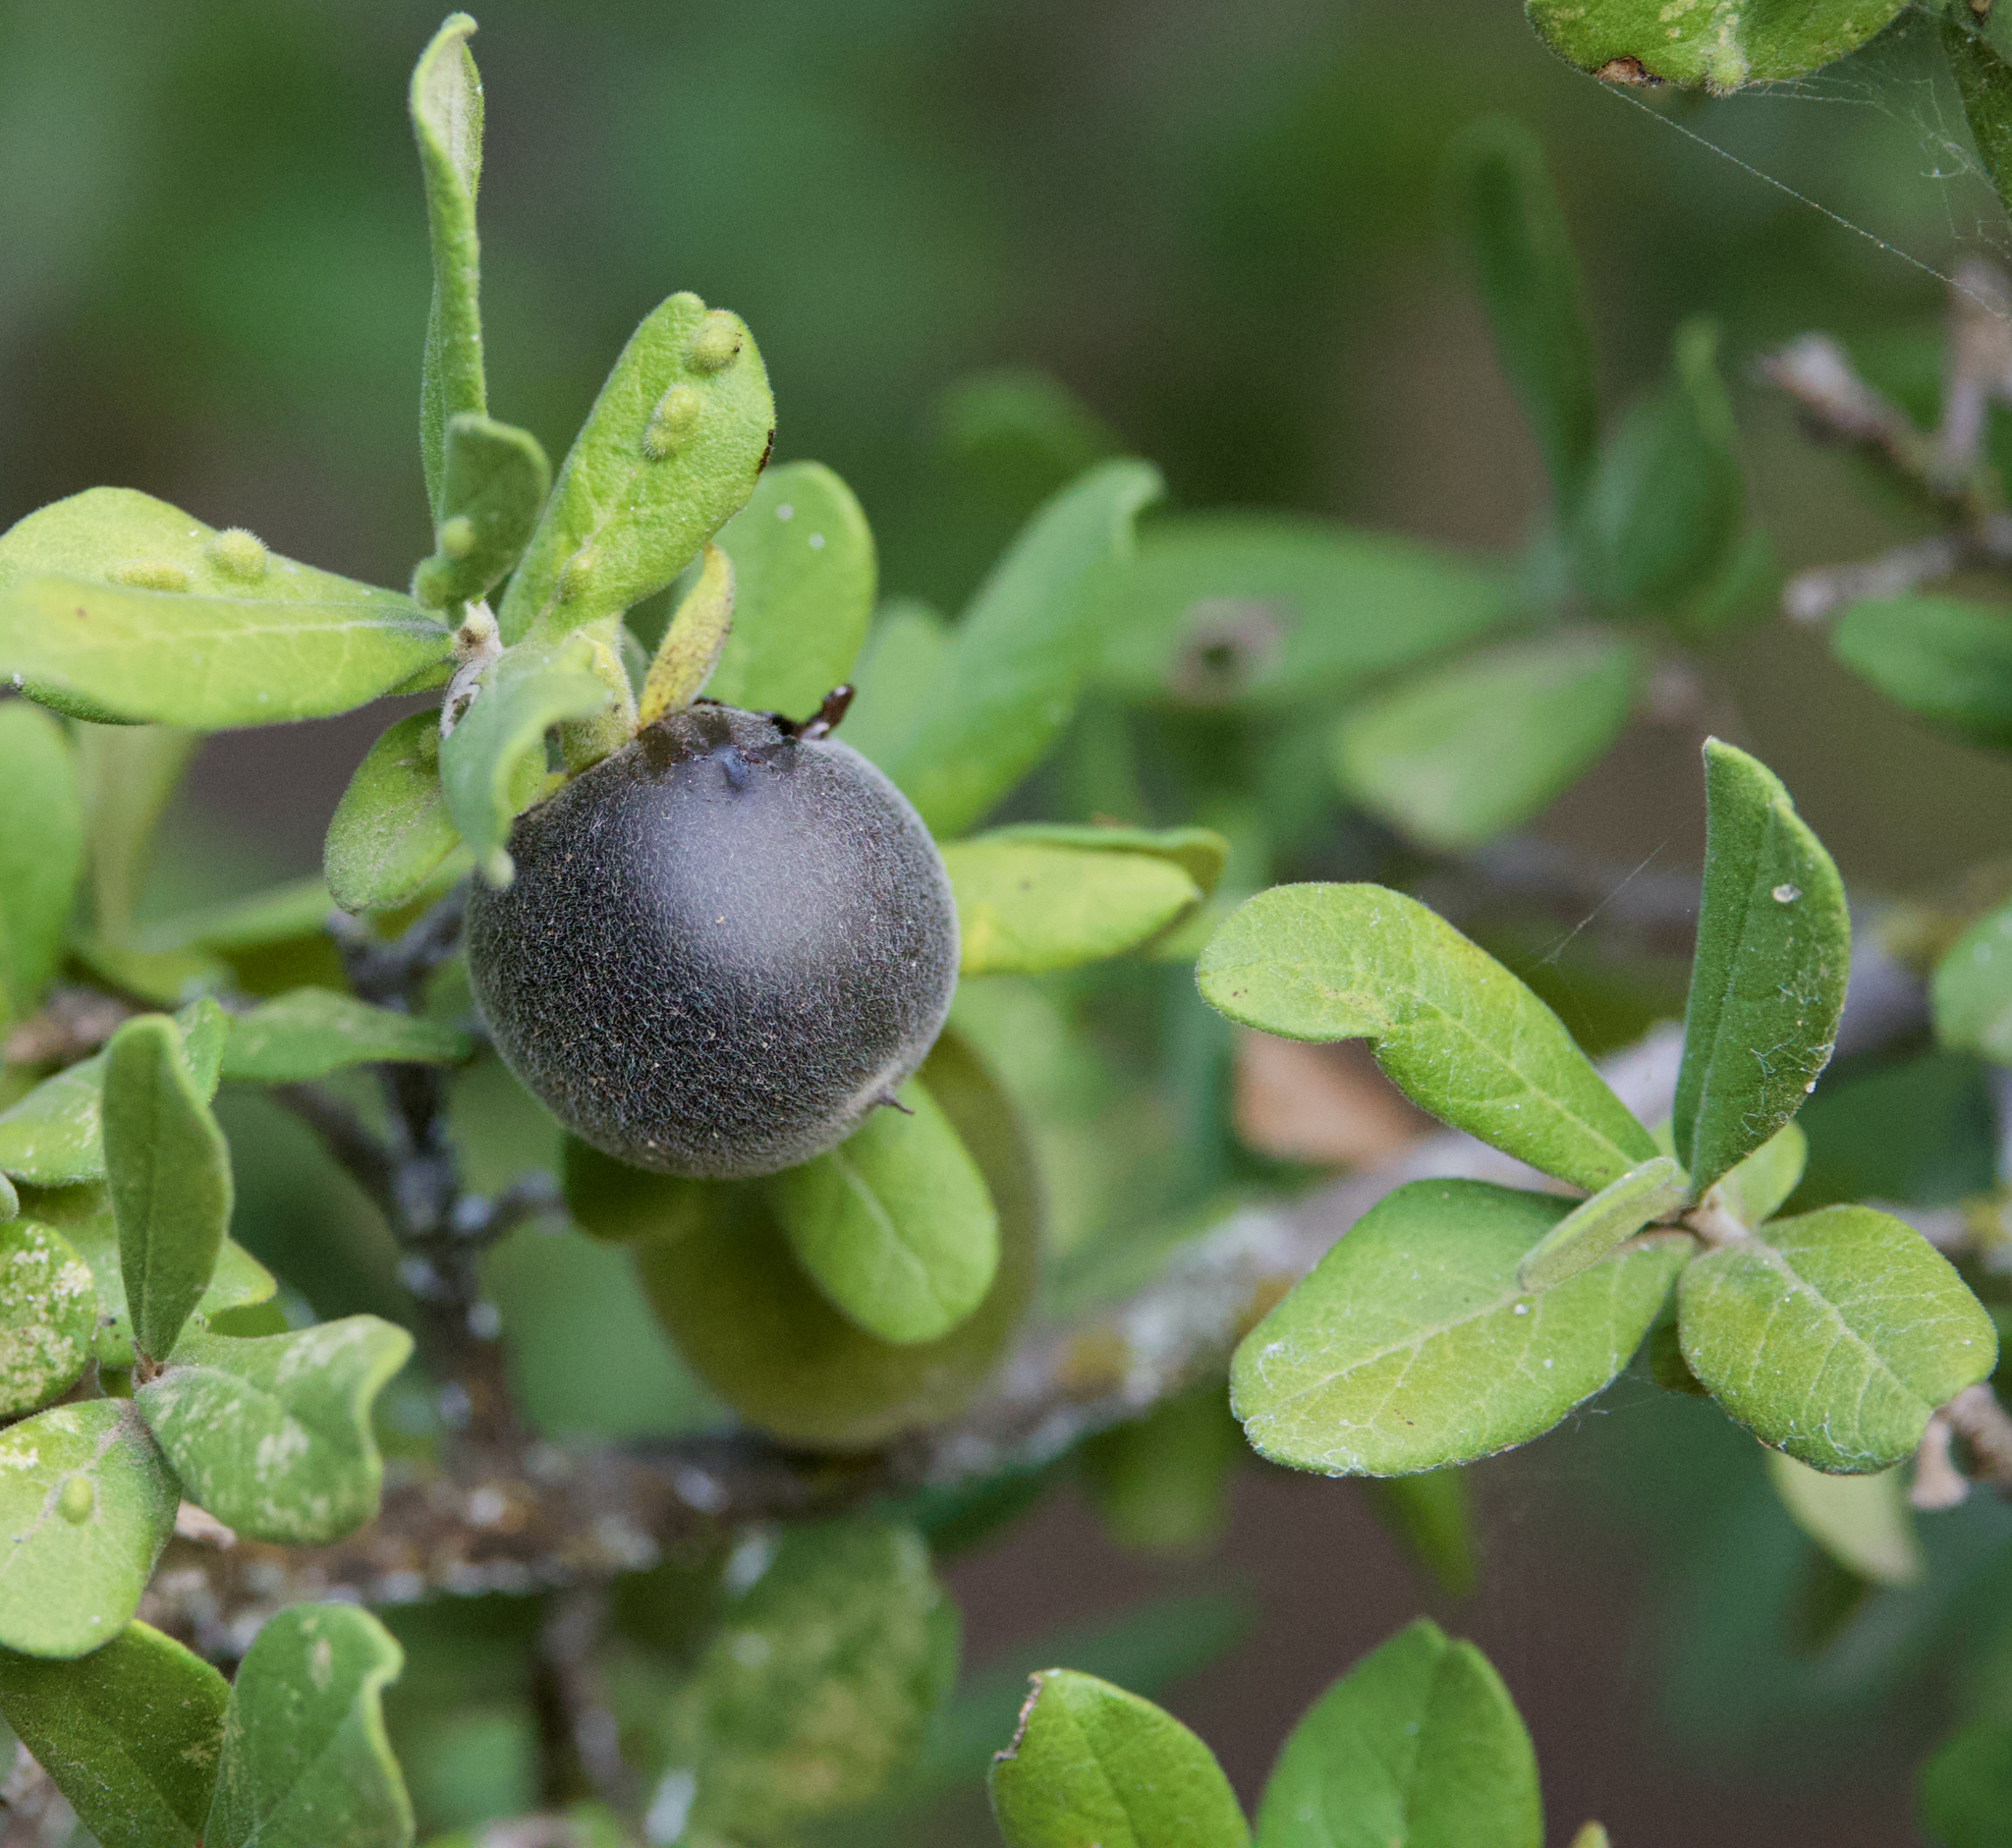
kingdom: Plantae
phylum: Tracheophyta
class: Magnoliopsida
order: Ericales
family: Ebenaceae
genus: Diospyros
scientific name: Diospyros texana
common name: Texas persimmon
